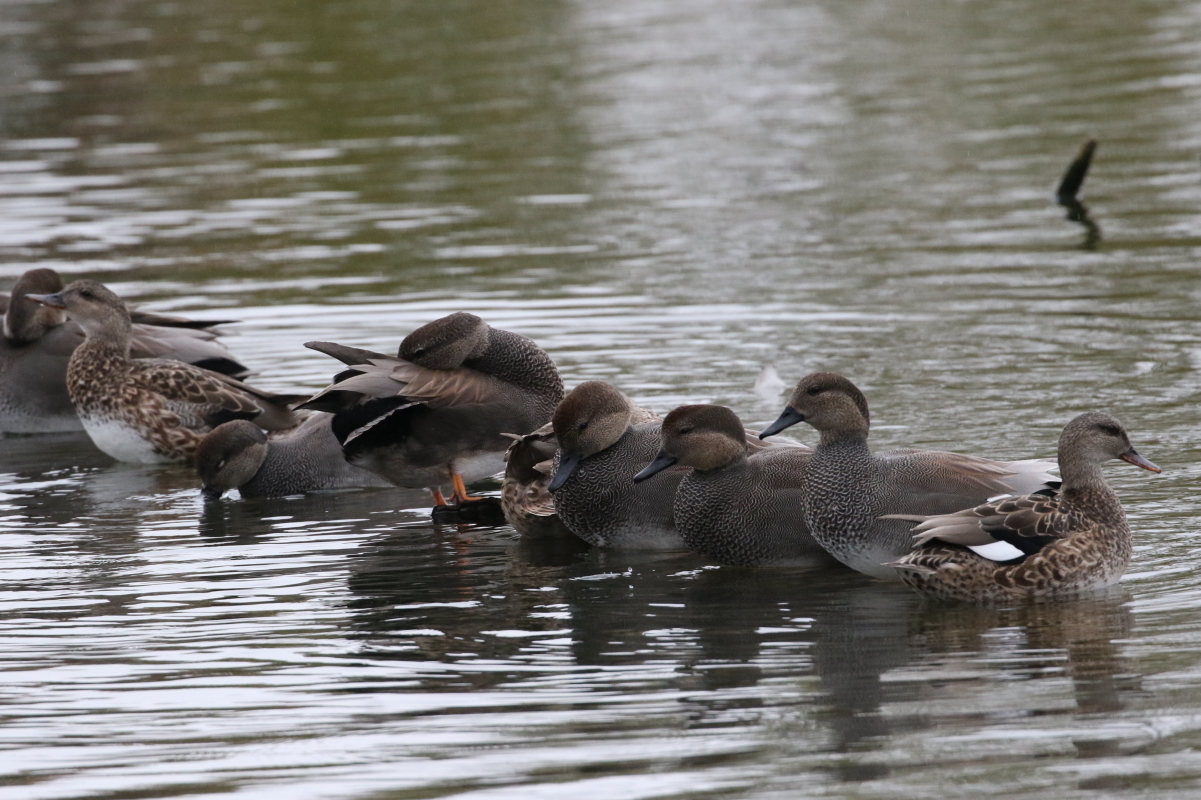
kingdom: Animalia
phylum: Chordata
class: Aves
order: Anseriformes
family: Anatidae
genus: Mareca
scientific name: Mareca strepera
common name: Gadwall
